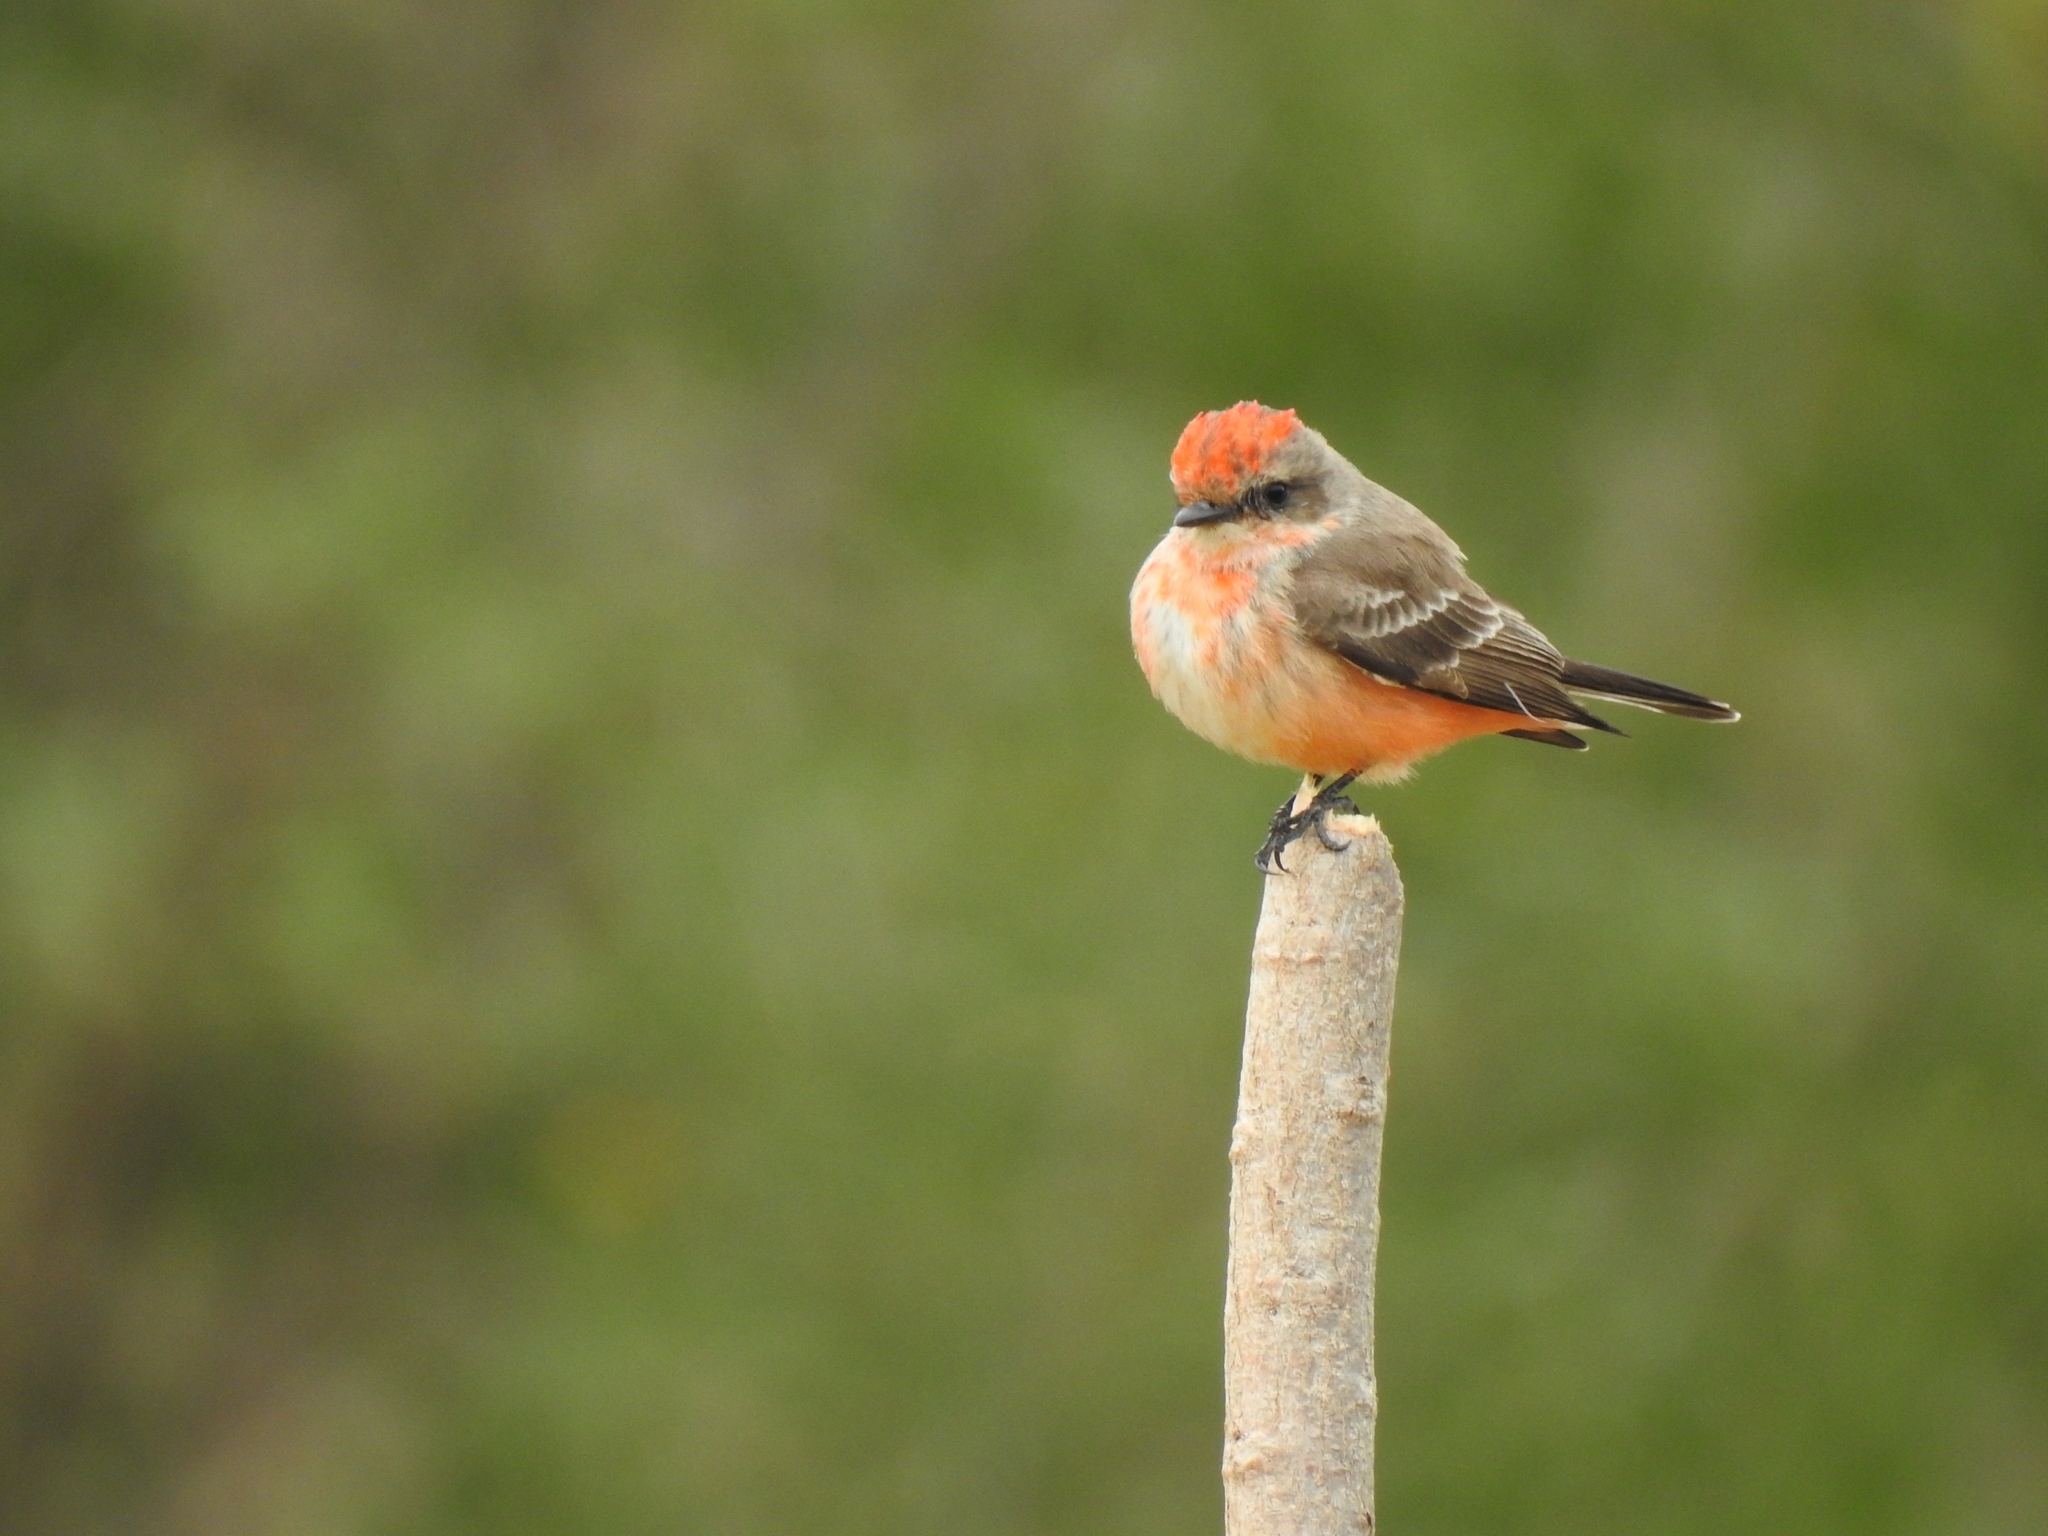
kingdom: Animalia
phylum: Chordata
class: Aves
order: Passeriformes
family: Tyrannidae
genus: Pyrocephalus
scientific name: Pyrocephalus rubinus
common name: Vermilion flycatcher
